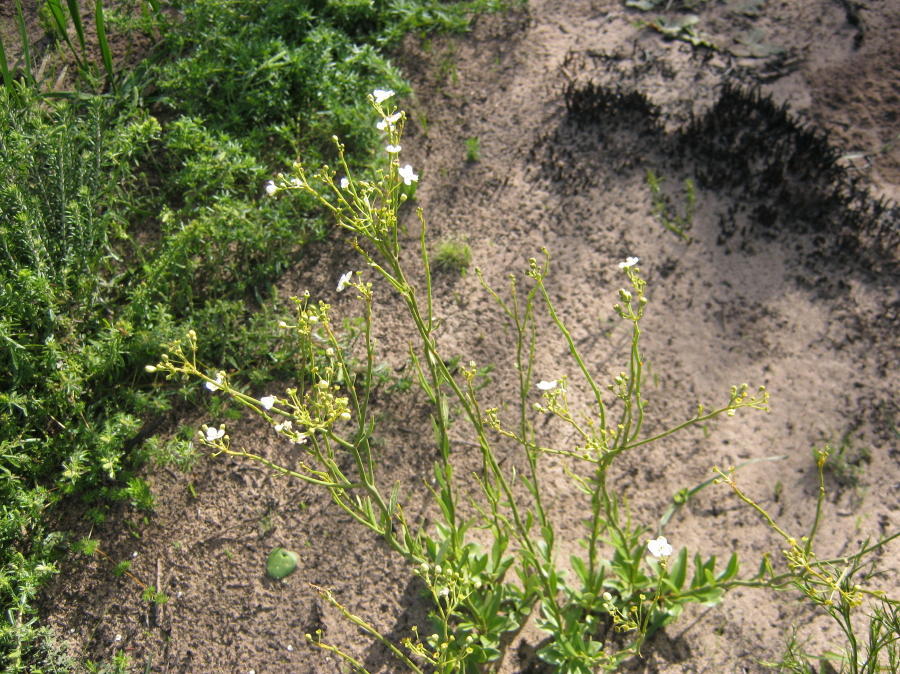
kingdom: Plantae
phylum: Tracheophyta
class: Magnoliopsida
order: Solanales
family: Montiniaceae
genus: Montinia
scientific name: Montinia caryophyllacea
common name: Wild clove-bush
